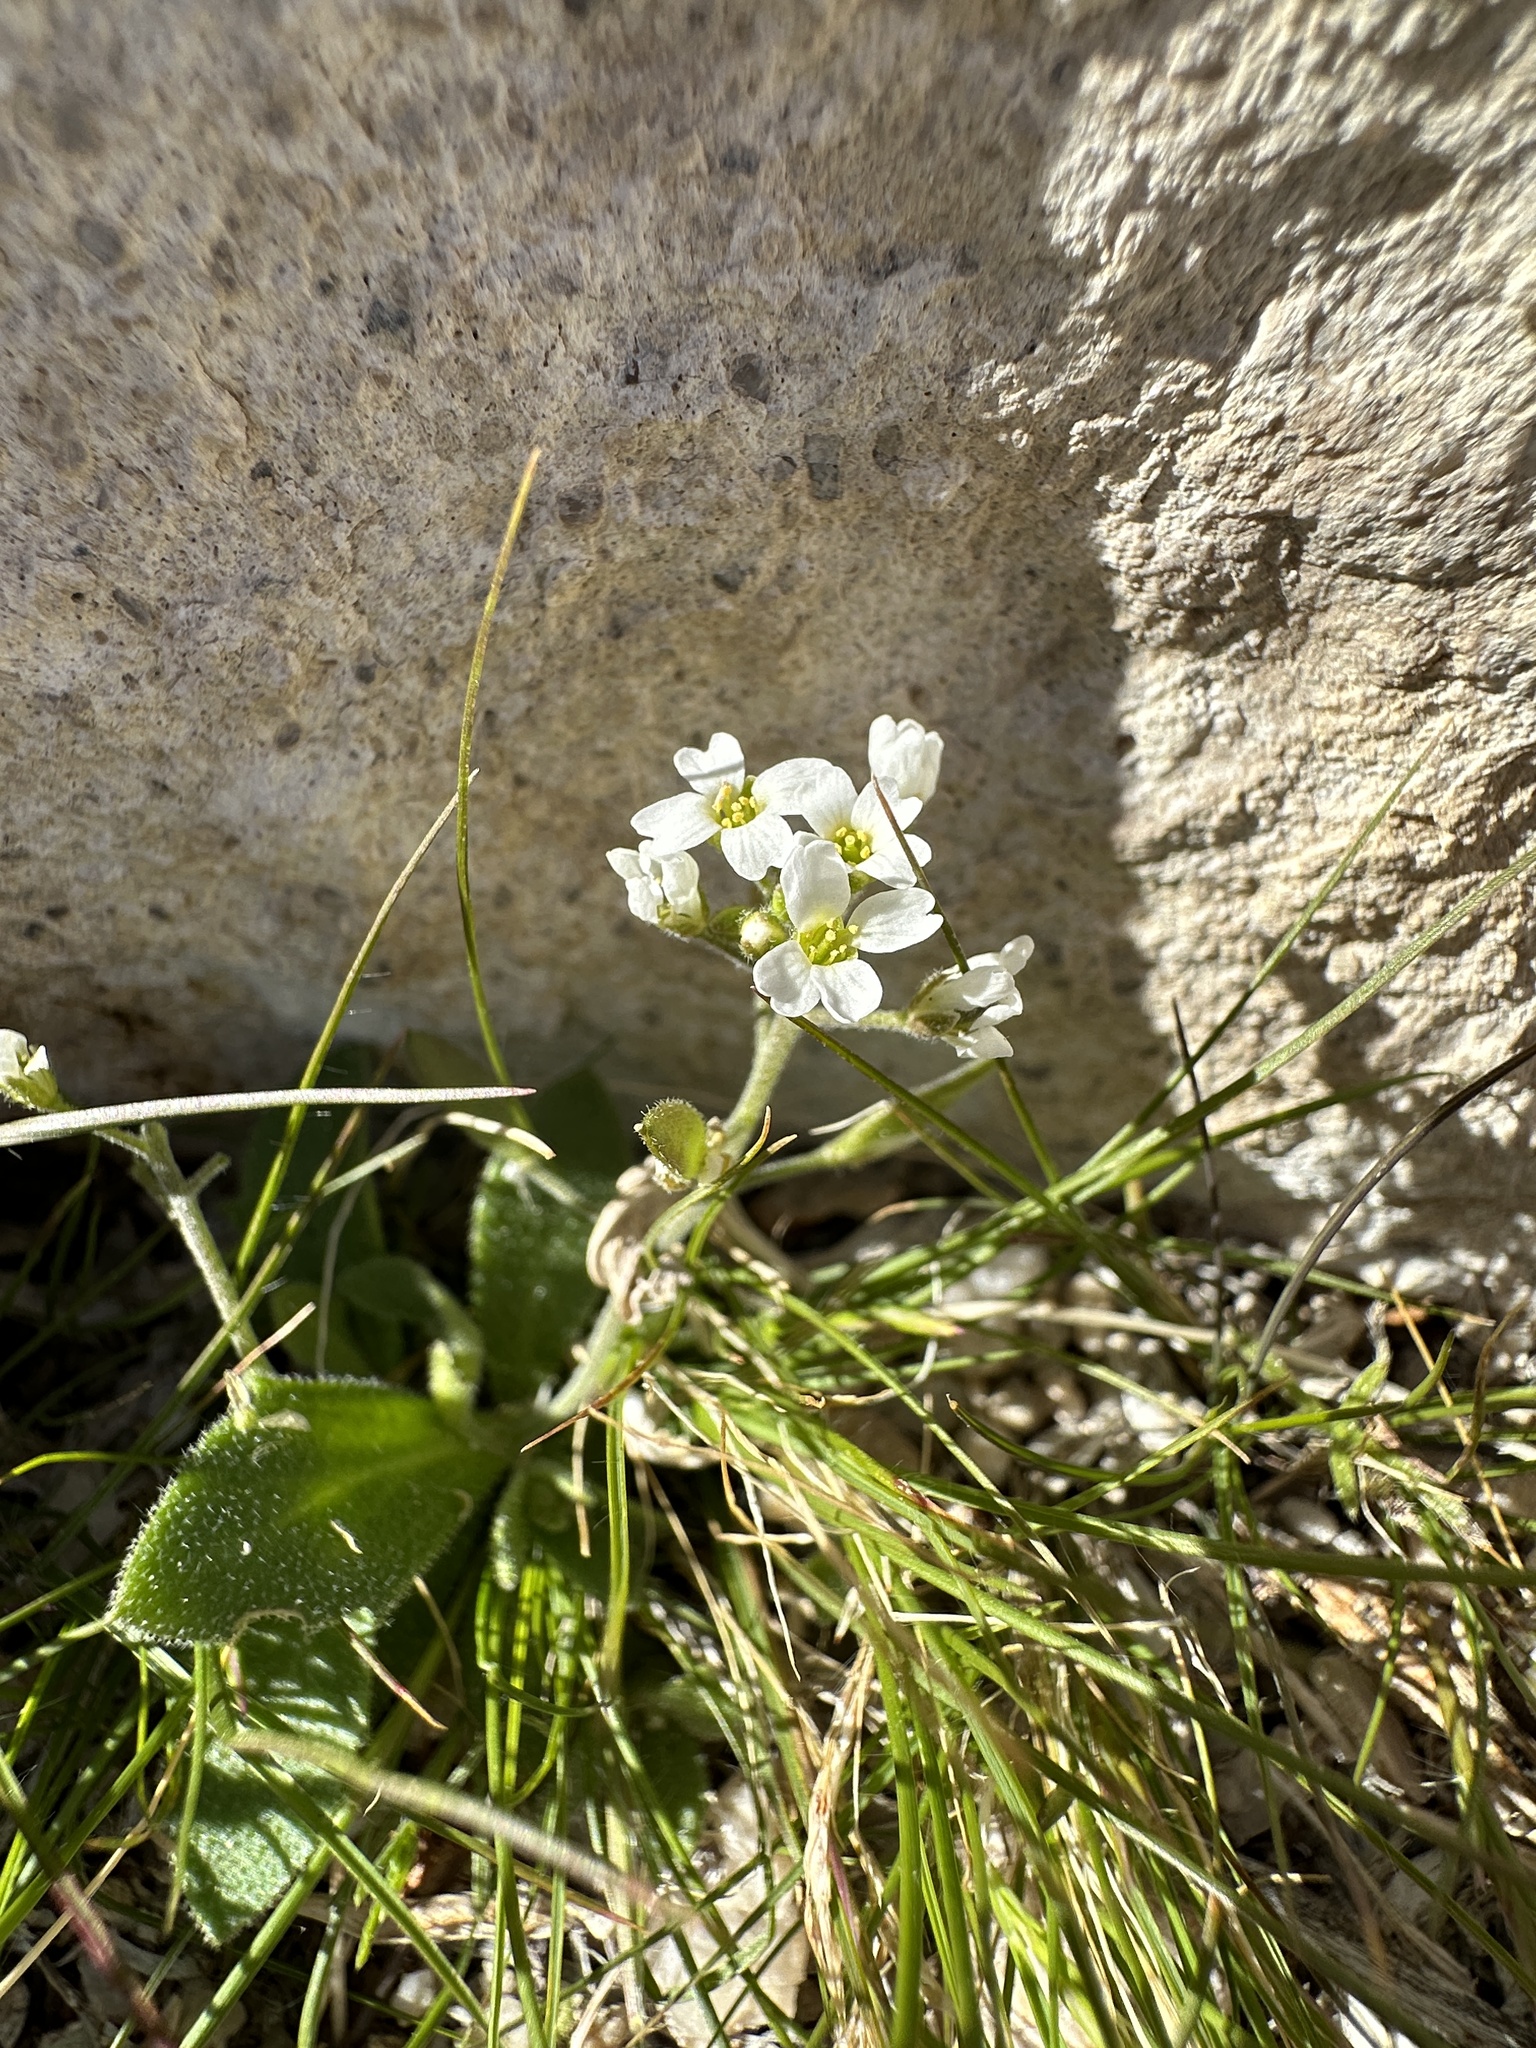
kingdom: Plantae
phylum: Tracheophyta
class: Magnoliopsida
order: Brassicales
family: Brassicaceae
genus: Tomostima
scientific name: Tomostima cuneifolia
